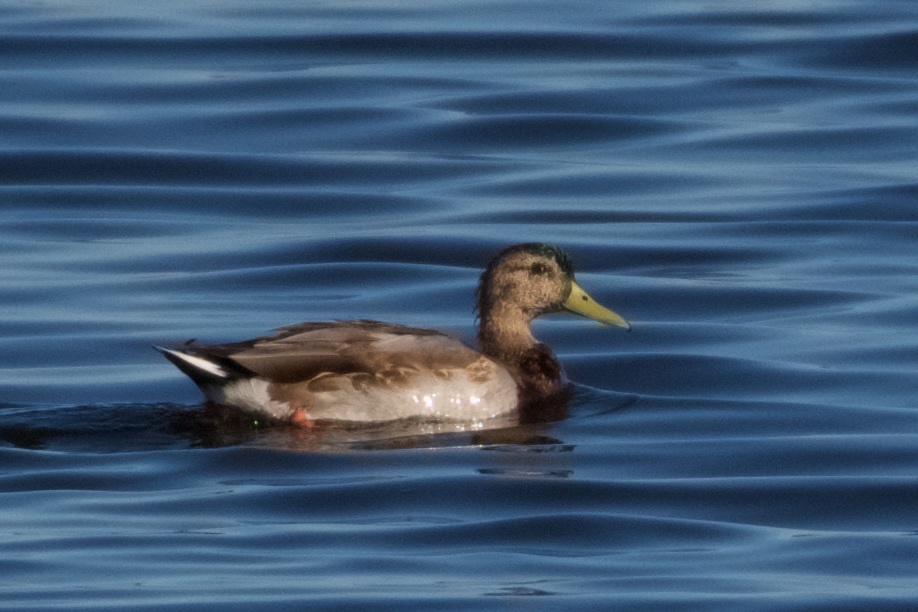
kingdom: Animalia
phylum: Chordata
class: Aves
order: Anseriformes
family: Anatidae
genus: Anas
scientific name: Anas platyrhynchos
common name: Mallard
